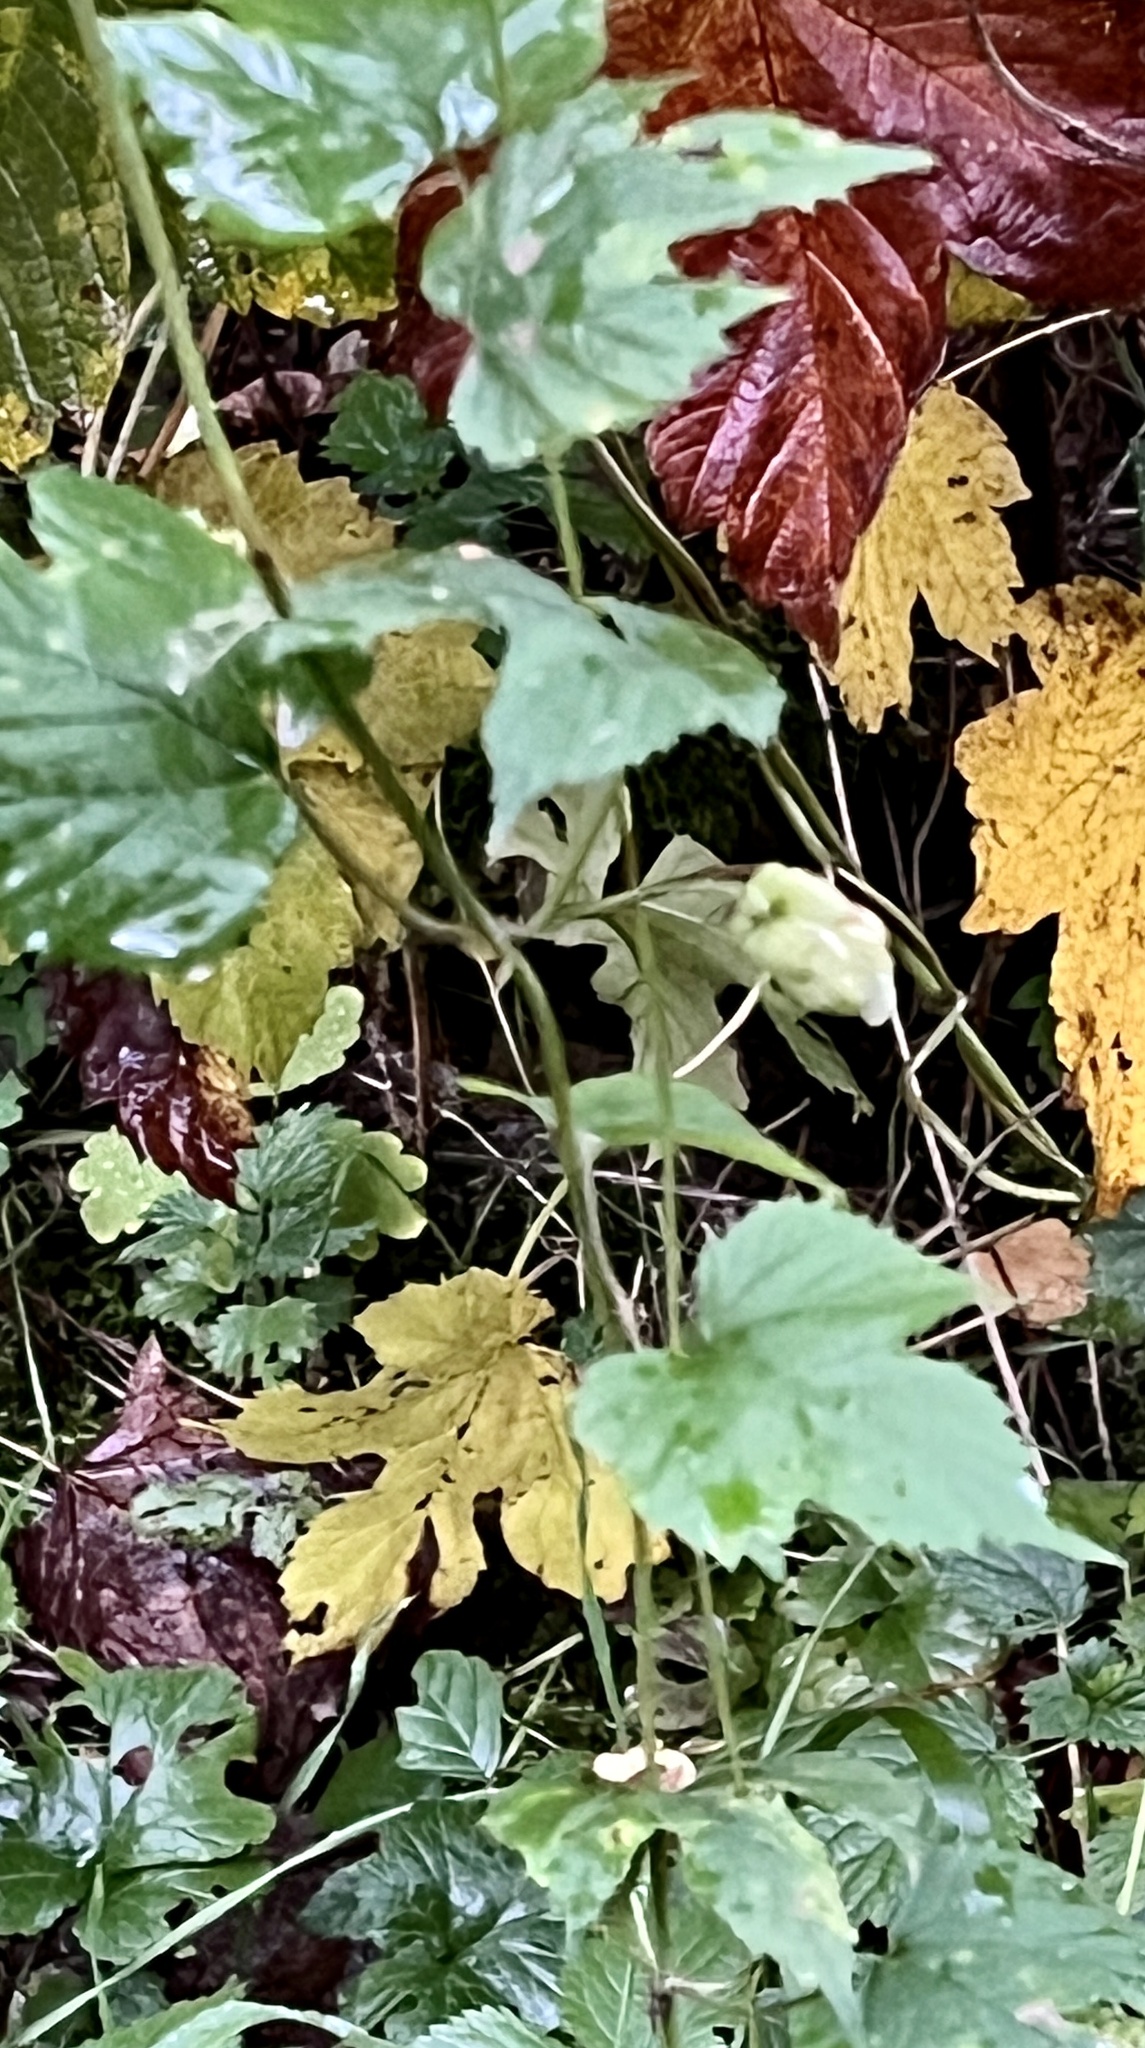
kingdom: Plantae
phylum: Tracheophyta
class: Magnoliopsida
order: Rosales
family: Cannabaceae
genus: Humulus
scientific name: Humulus lupulus
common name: Hop
